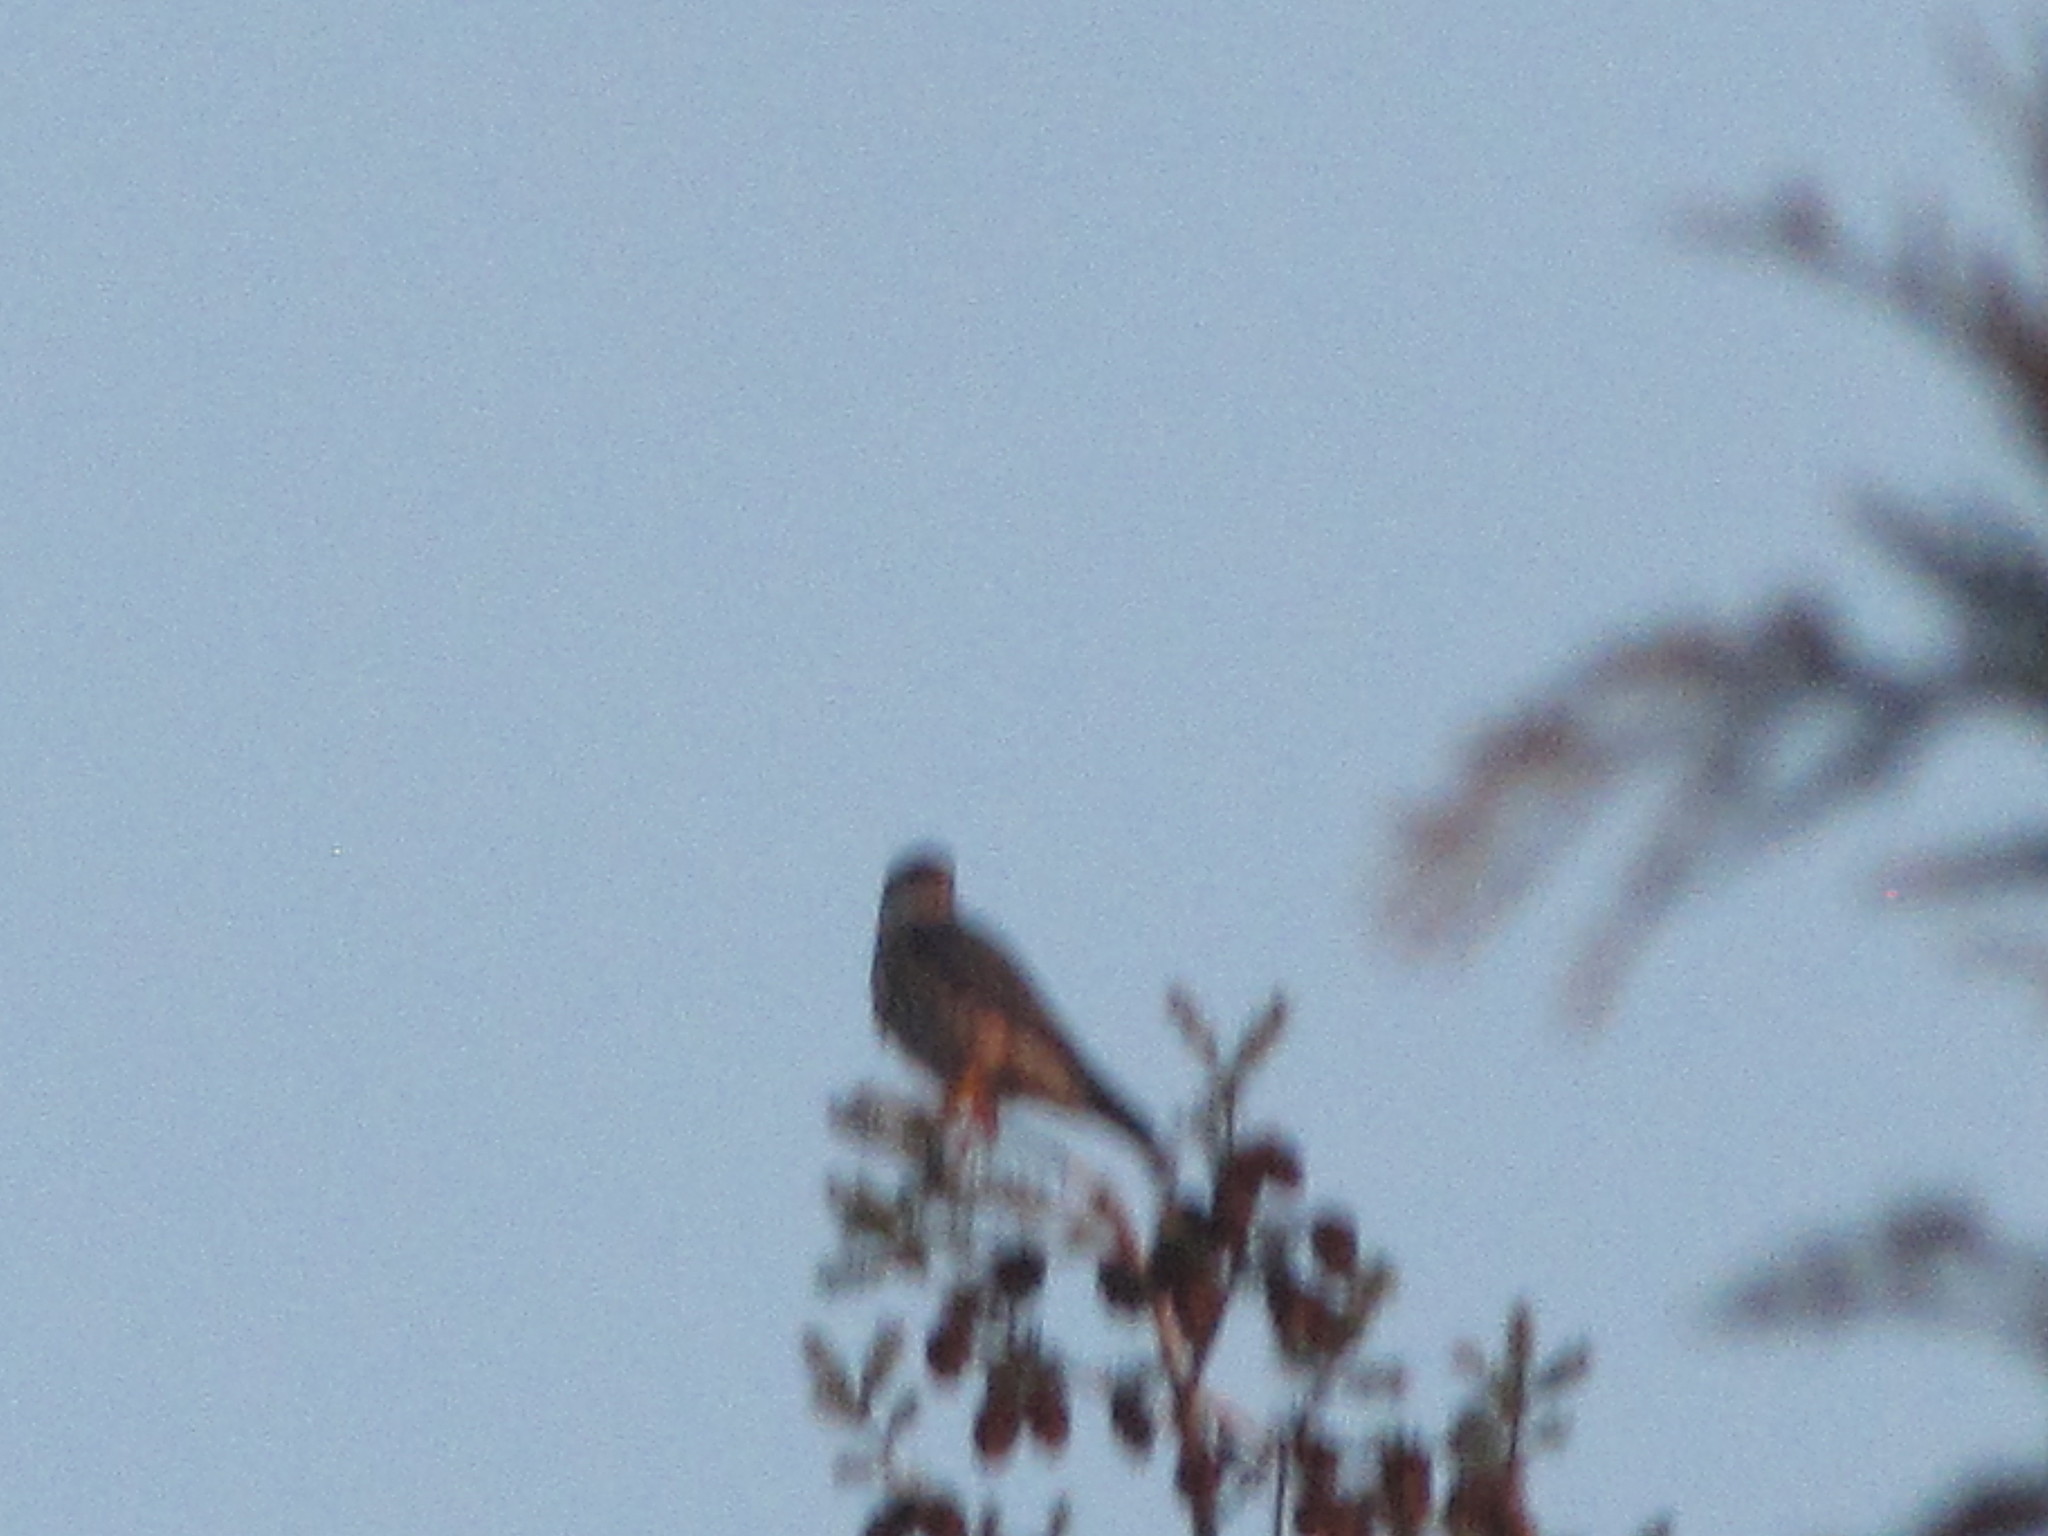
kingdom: Animalia
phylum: Chordata
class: Aves
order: Falconiformes
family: Falconidae
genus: Falco
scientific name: Falco columbarius
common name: Merlin
